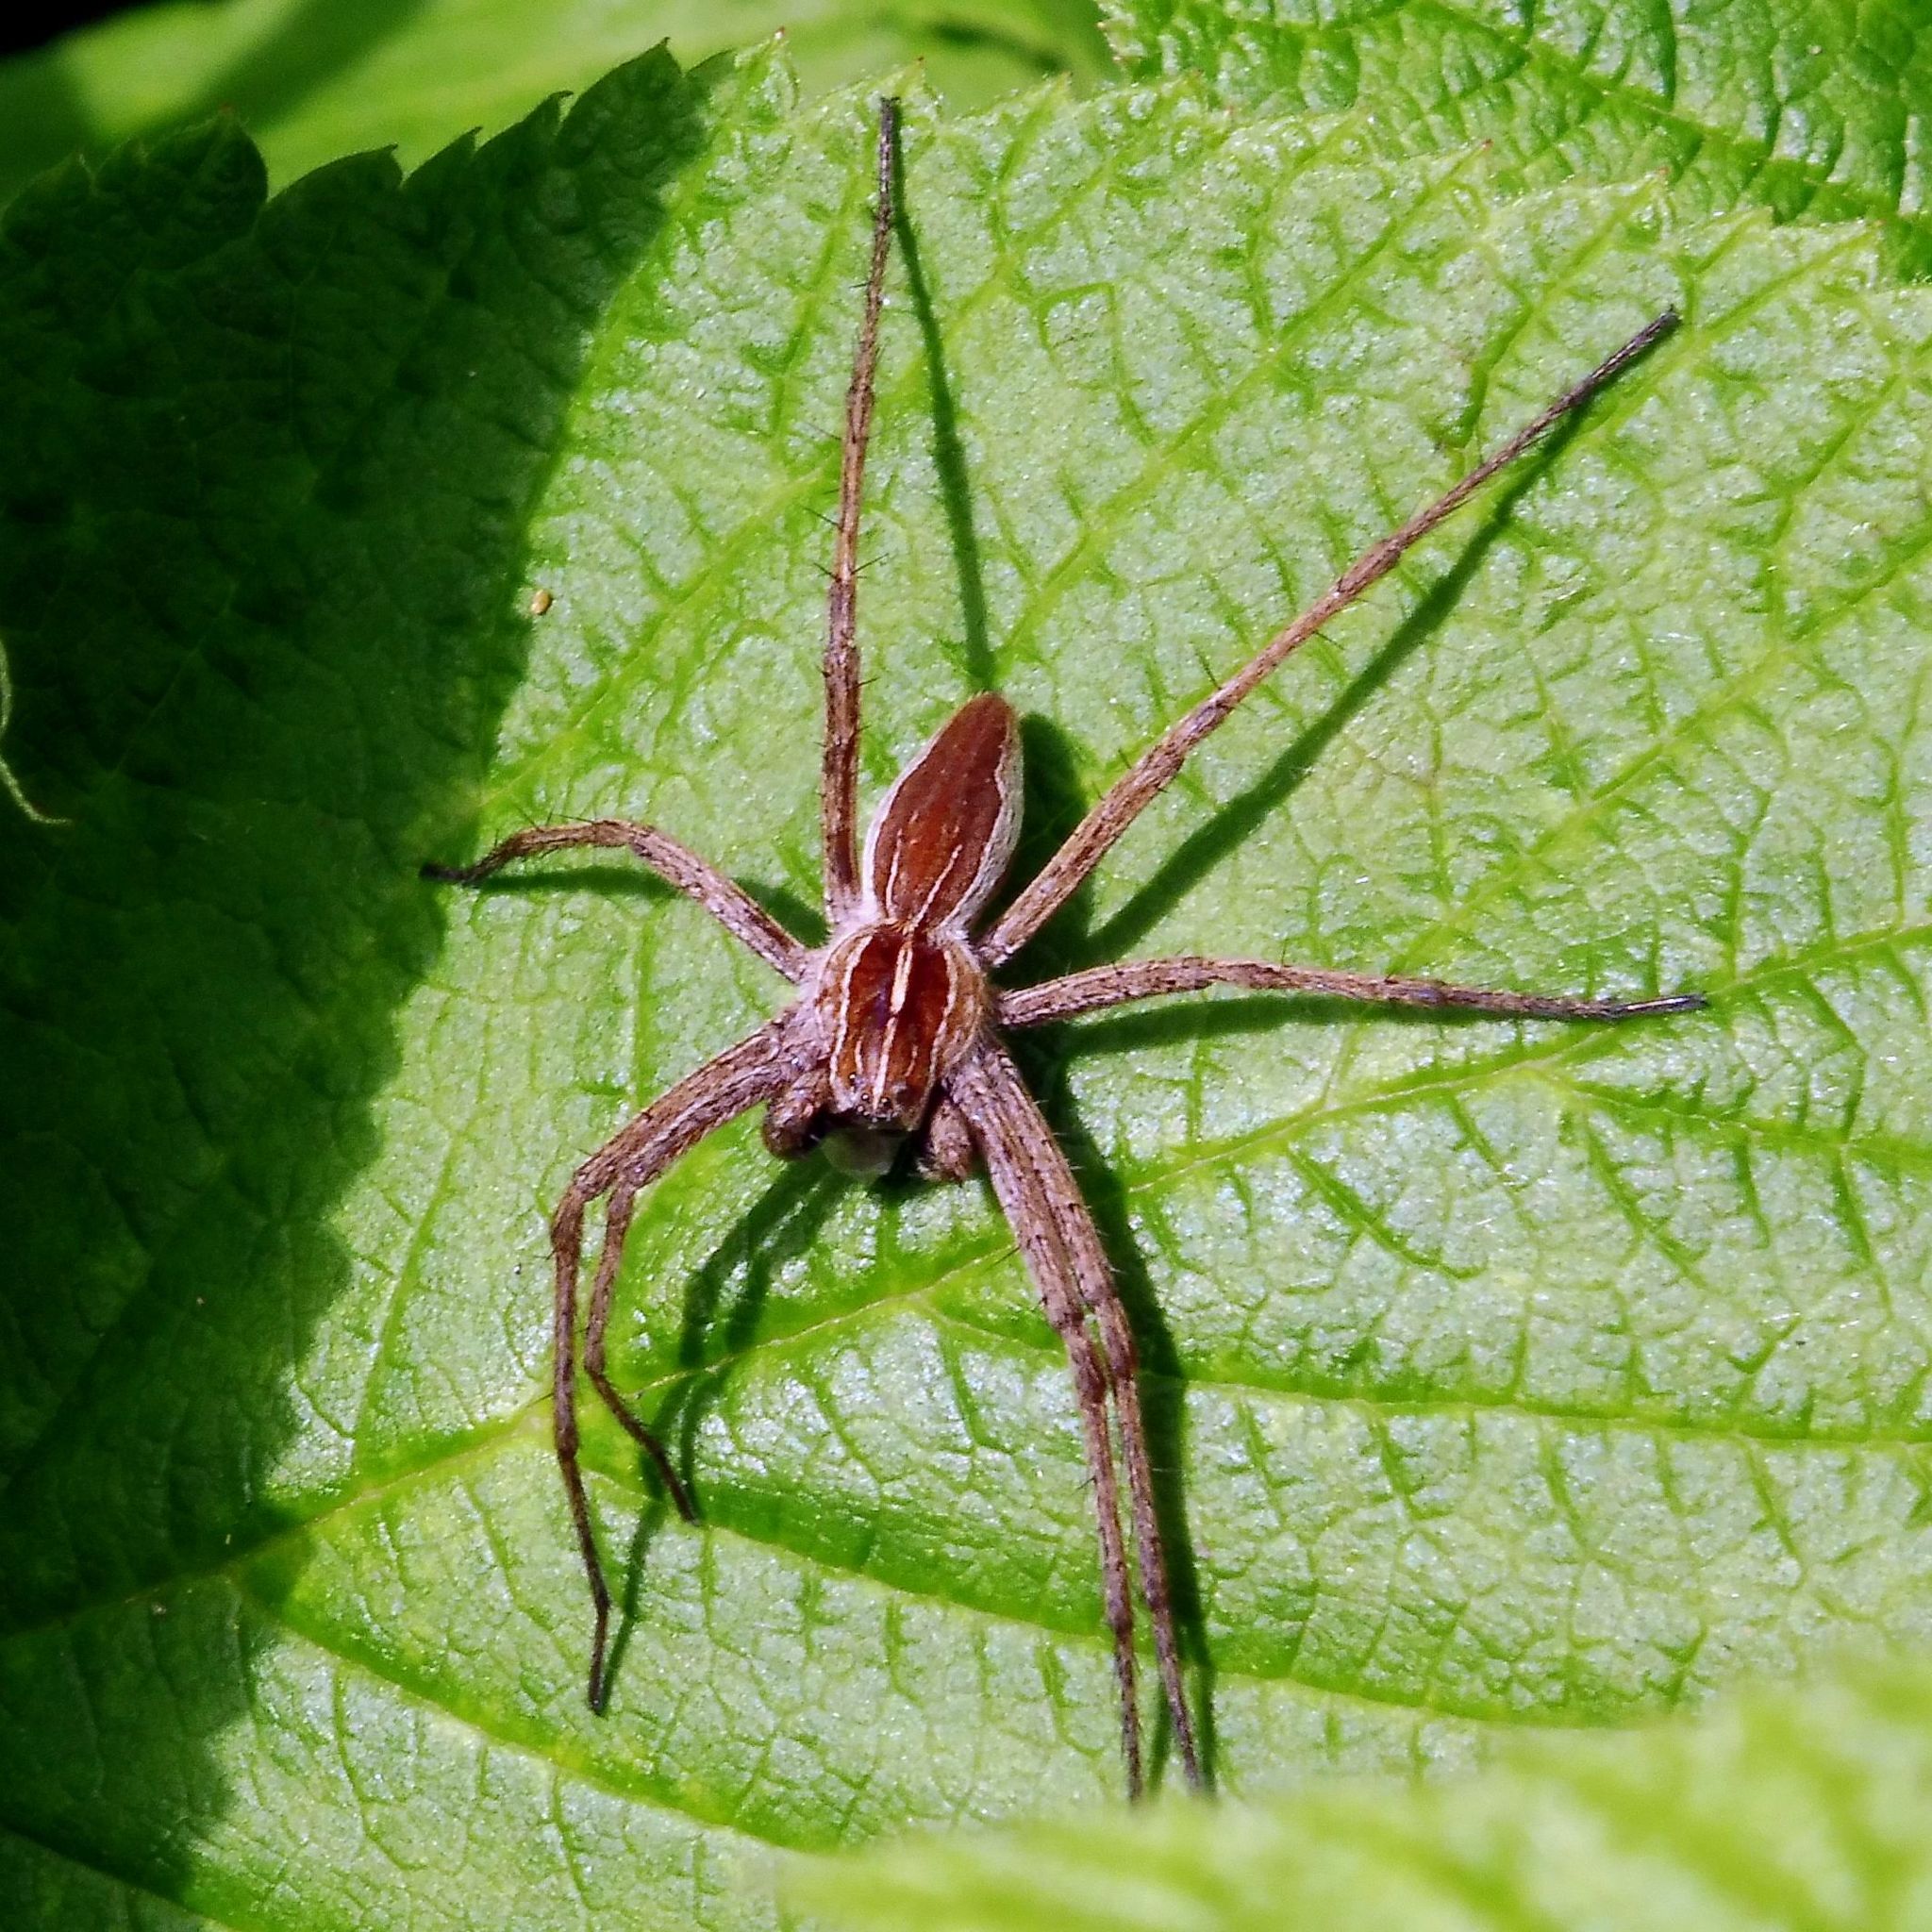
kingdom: Animalia
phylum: Arthropoda
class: Arachnida
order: Araneae
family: Pisauridae
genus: Pisaura
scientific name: Pisaura mirabilis
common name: Tent spider
